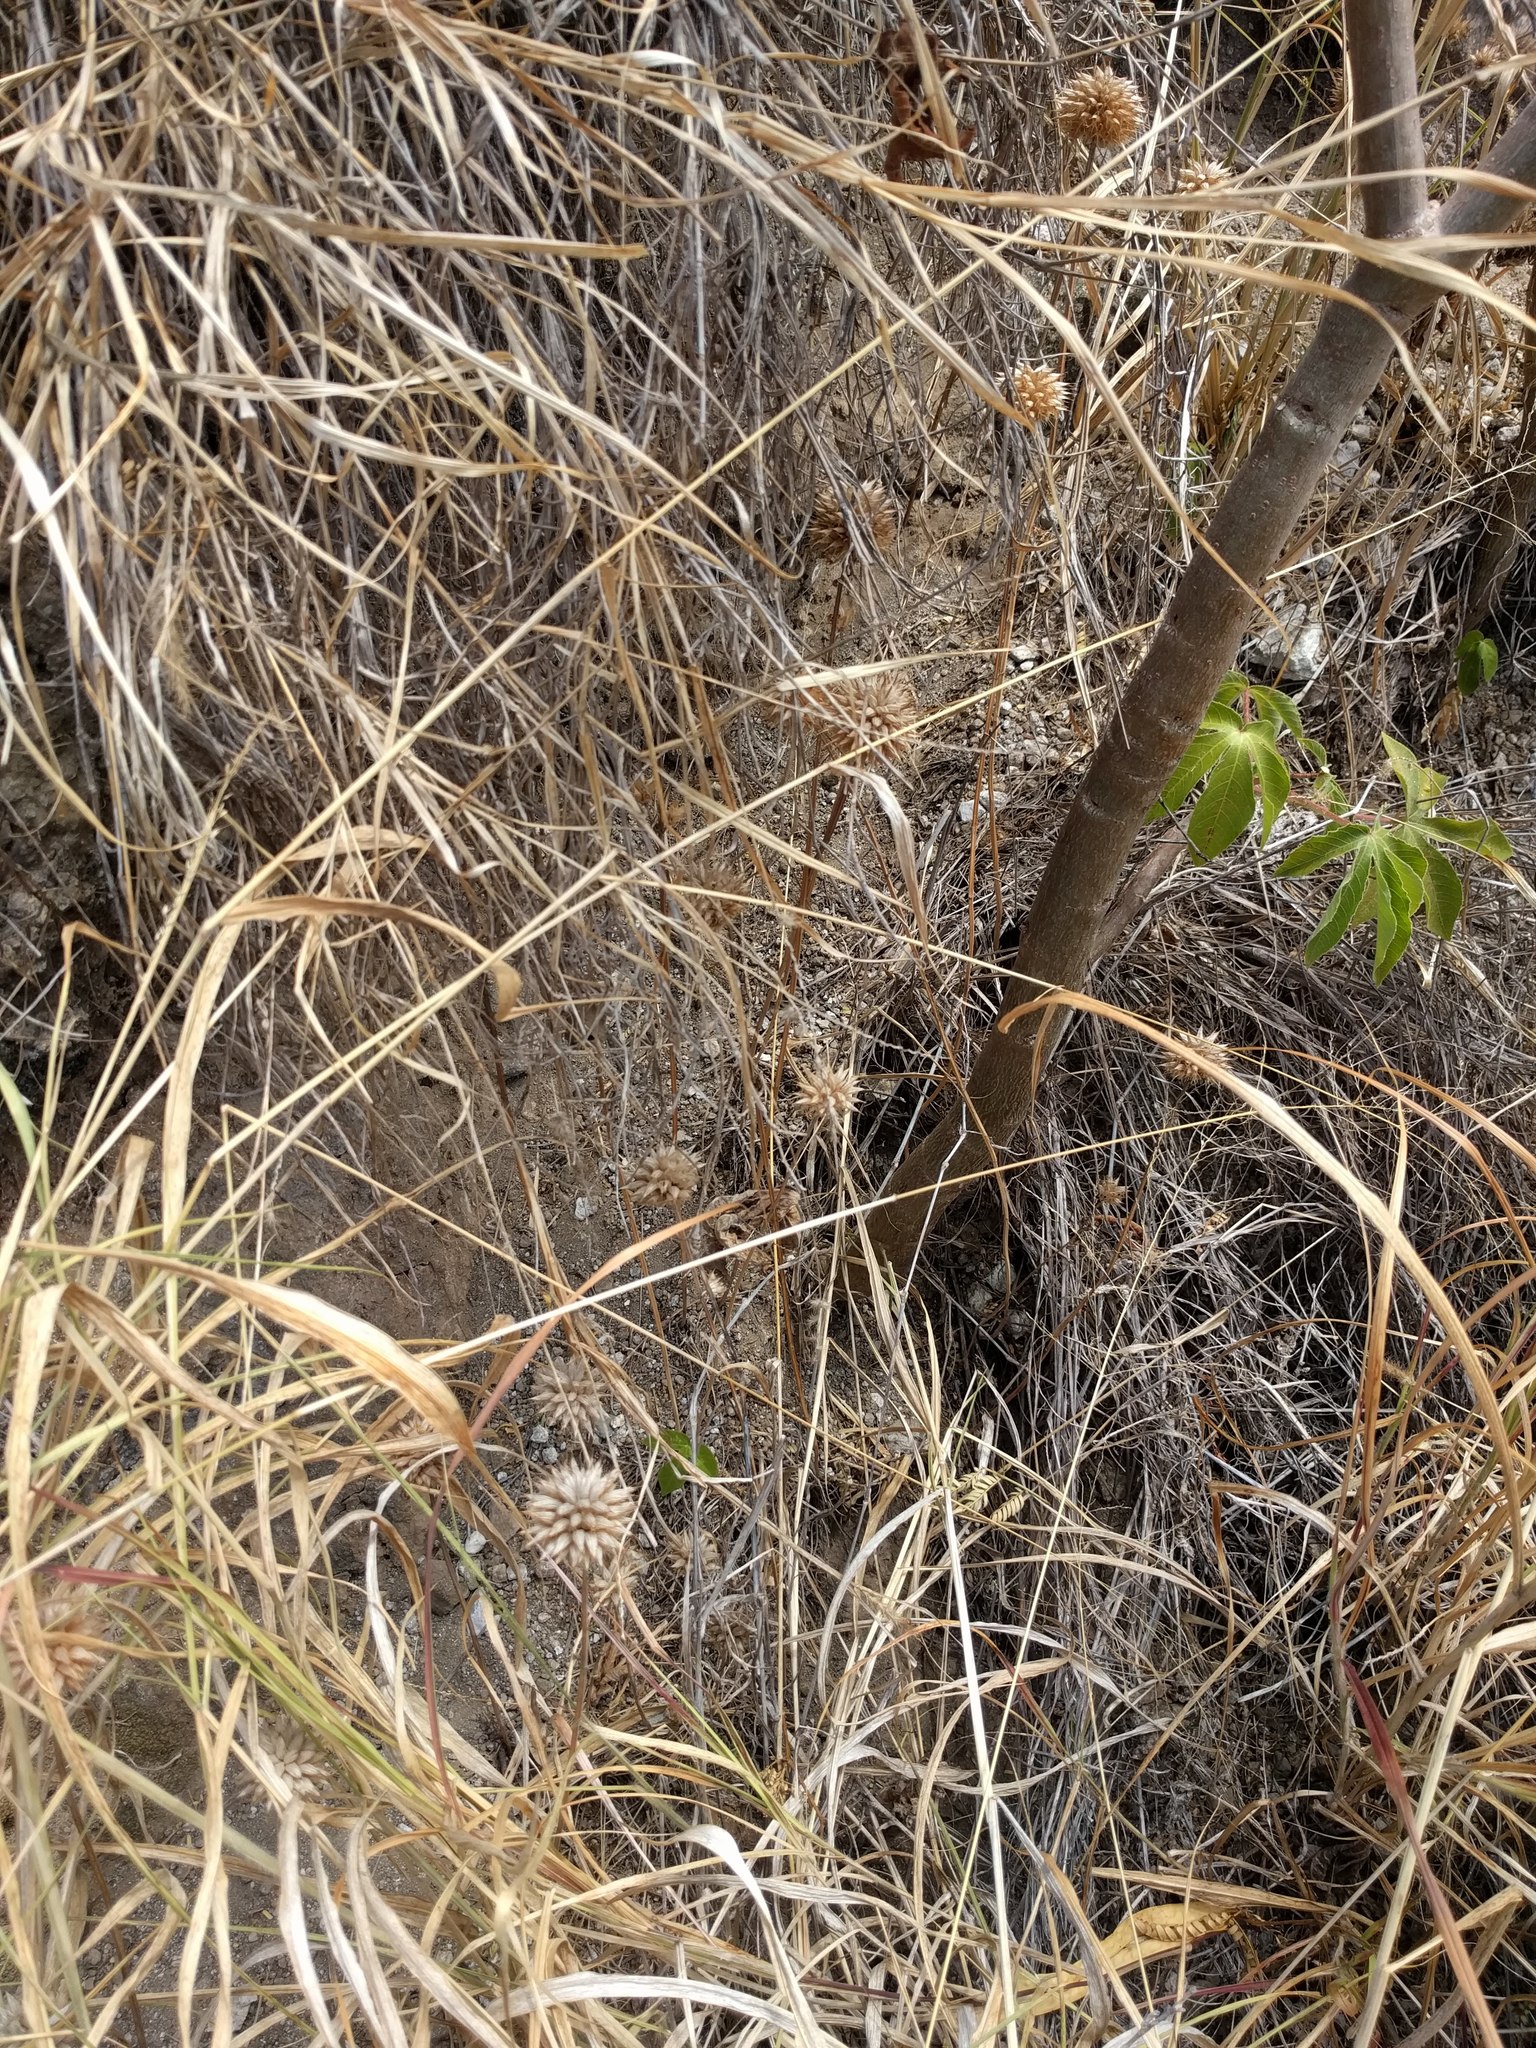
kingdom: Plantae
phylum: Tracheophyta
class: Magnoliopsida
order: Lamiales
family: Lamiaceae
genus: Leonotis
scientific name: Leonotis nepetifolia
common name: Christmas candlestick
